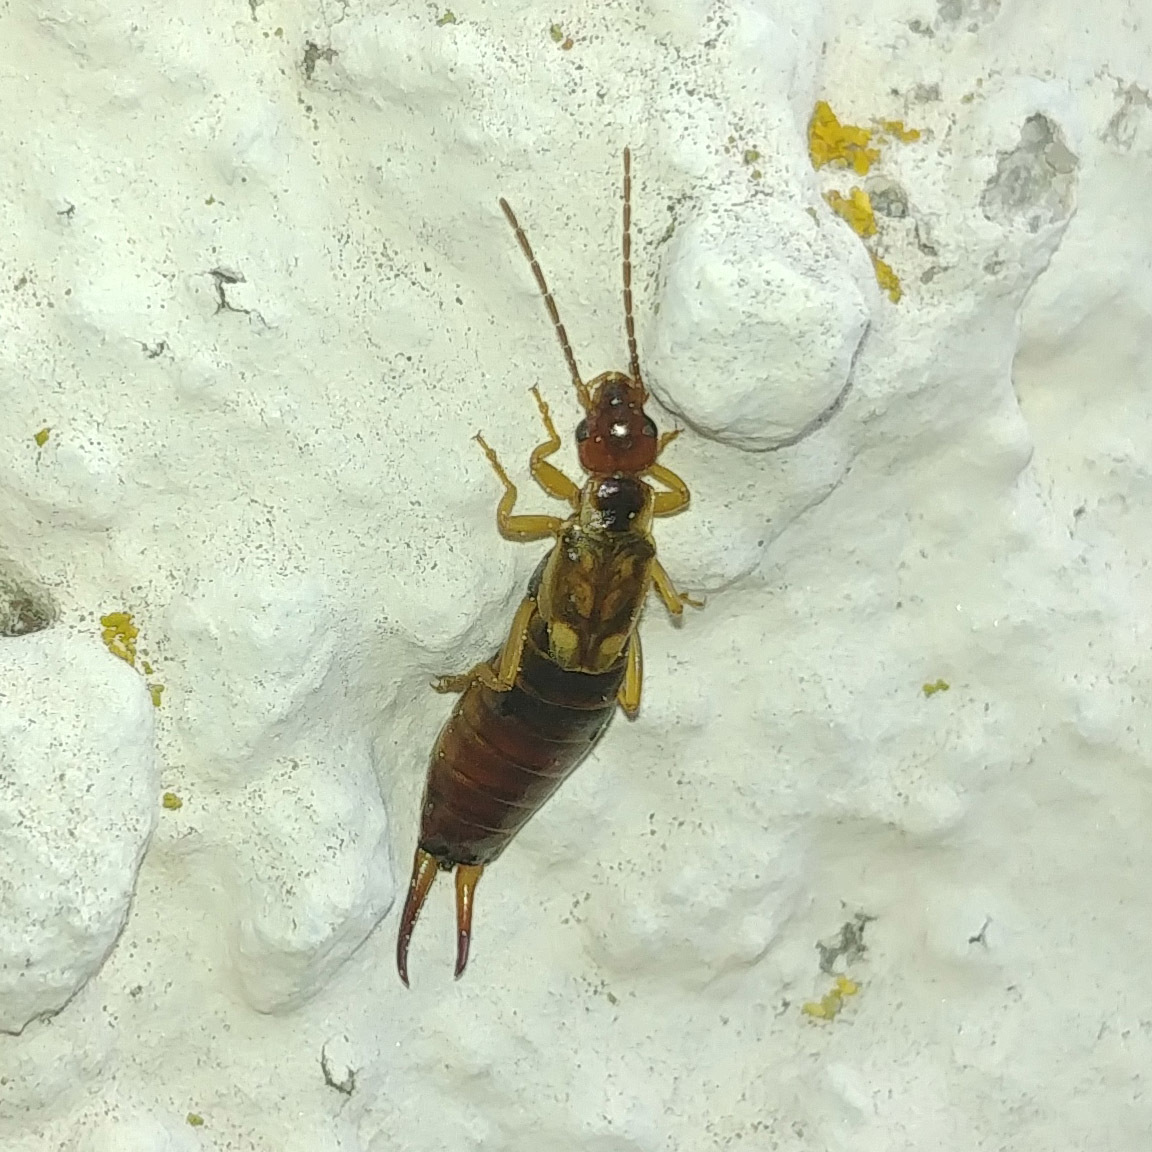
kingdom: Animalia
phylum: Arthropoda
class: Insecta
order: Dermaptera
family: Forficulidae
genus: Forficula
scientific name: Forficula
